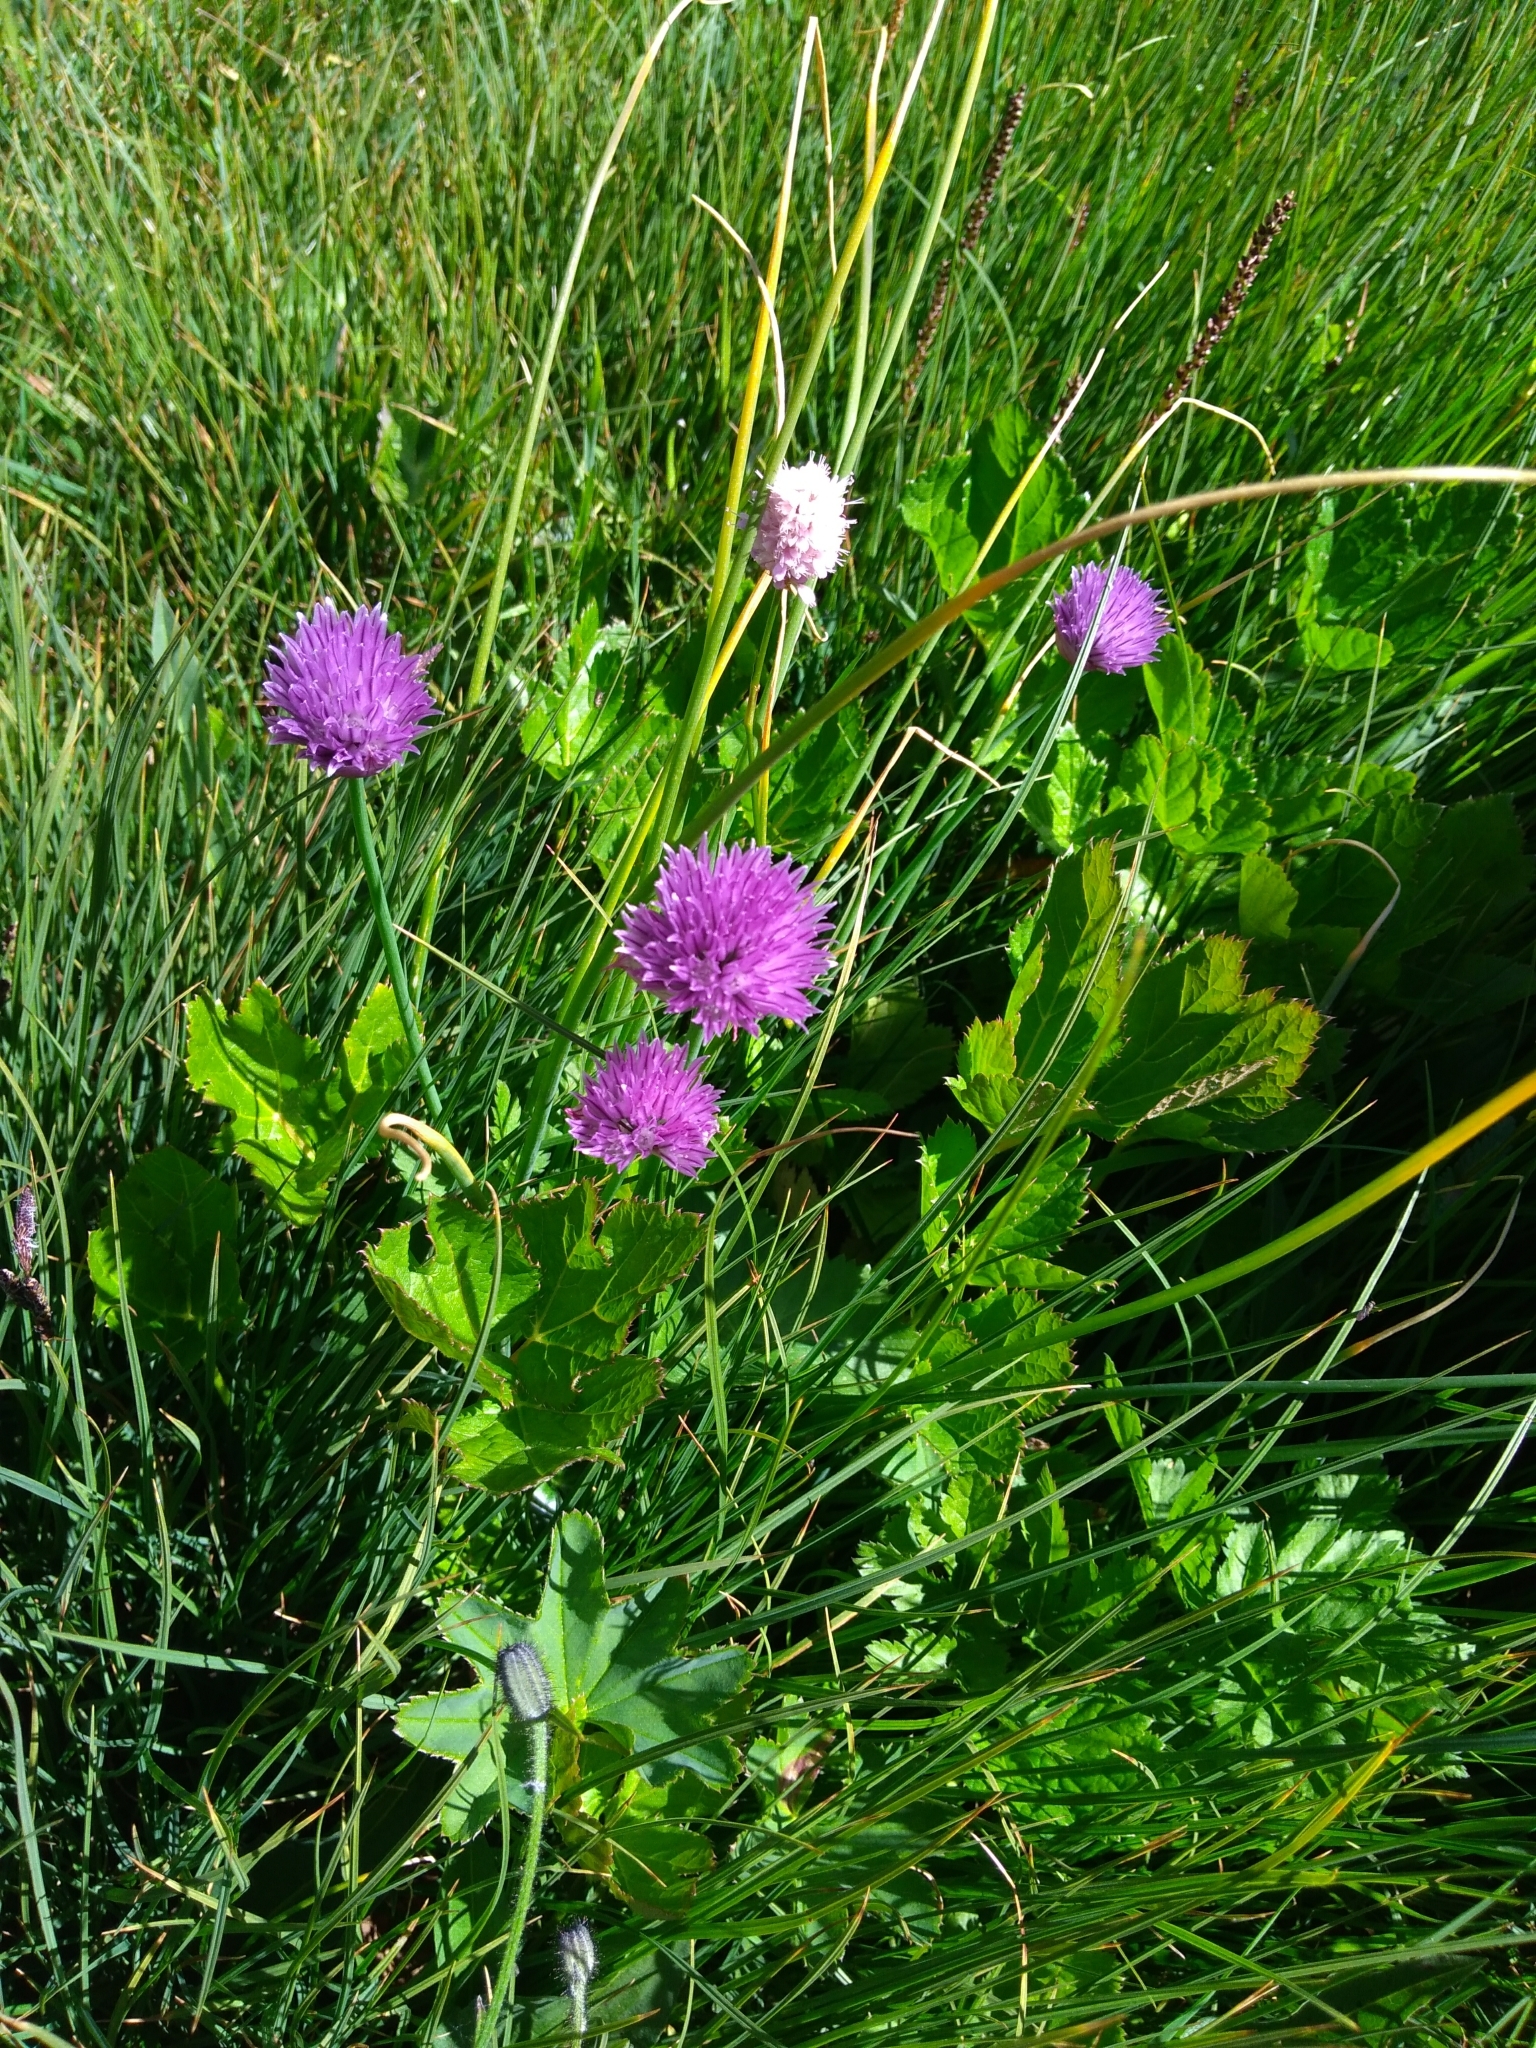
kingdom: Plantae
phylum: Tracheophyta
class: Liliopsida
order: Asparagales
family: Amaryllidaceae
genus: Allium
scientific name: Allium schoenoprasum
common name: Chives
